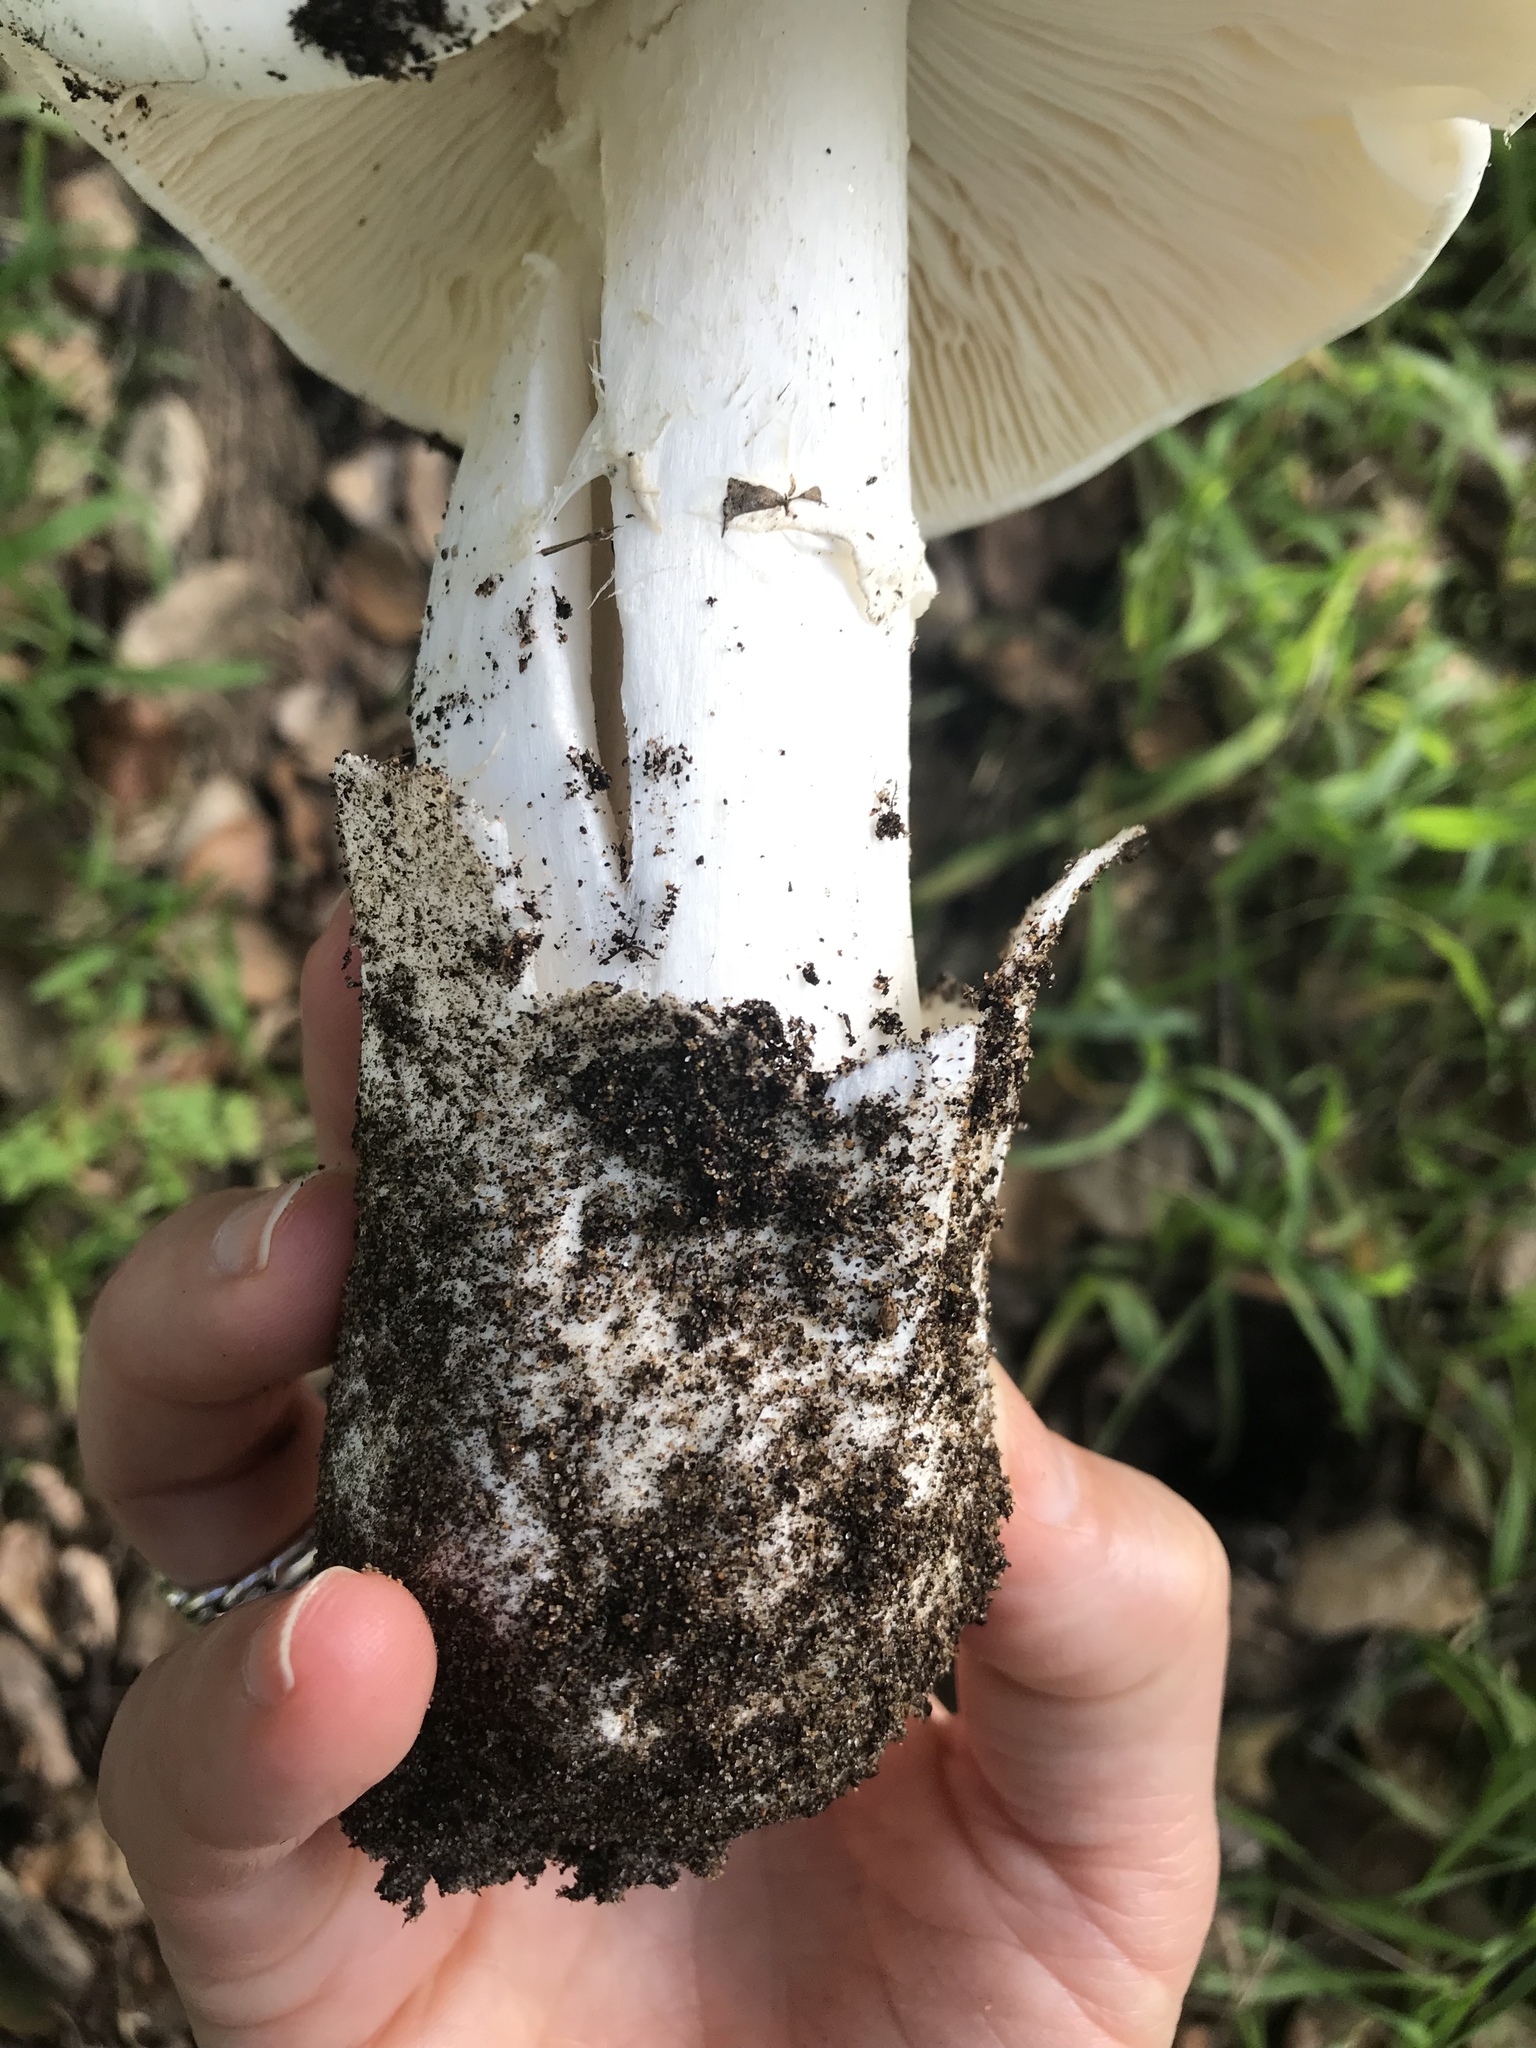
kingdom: Fungi
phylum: Basidiomycota
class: Agaricomycetes
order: Agaricales
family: Amanitaceae
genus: Amanita
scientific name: Amanita ocreata
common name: Western destroying angel
